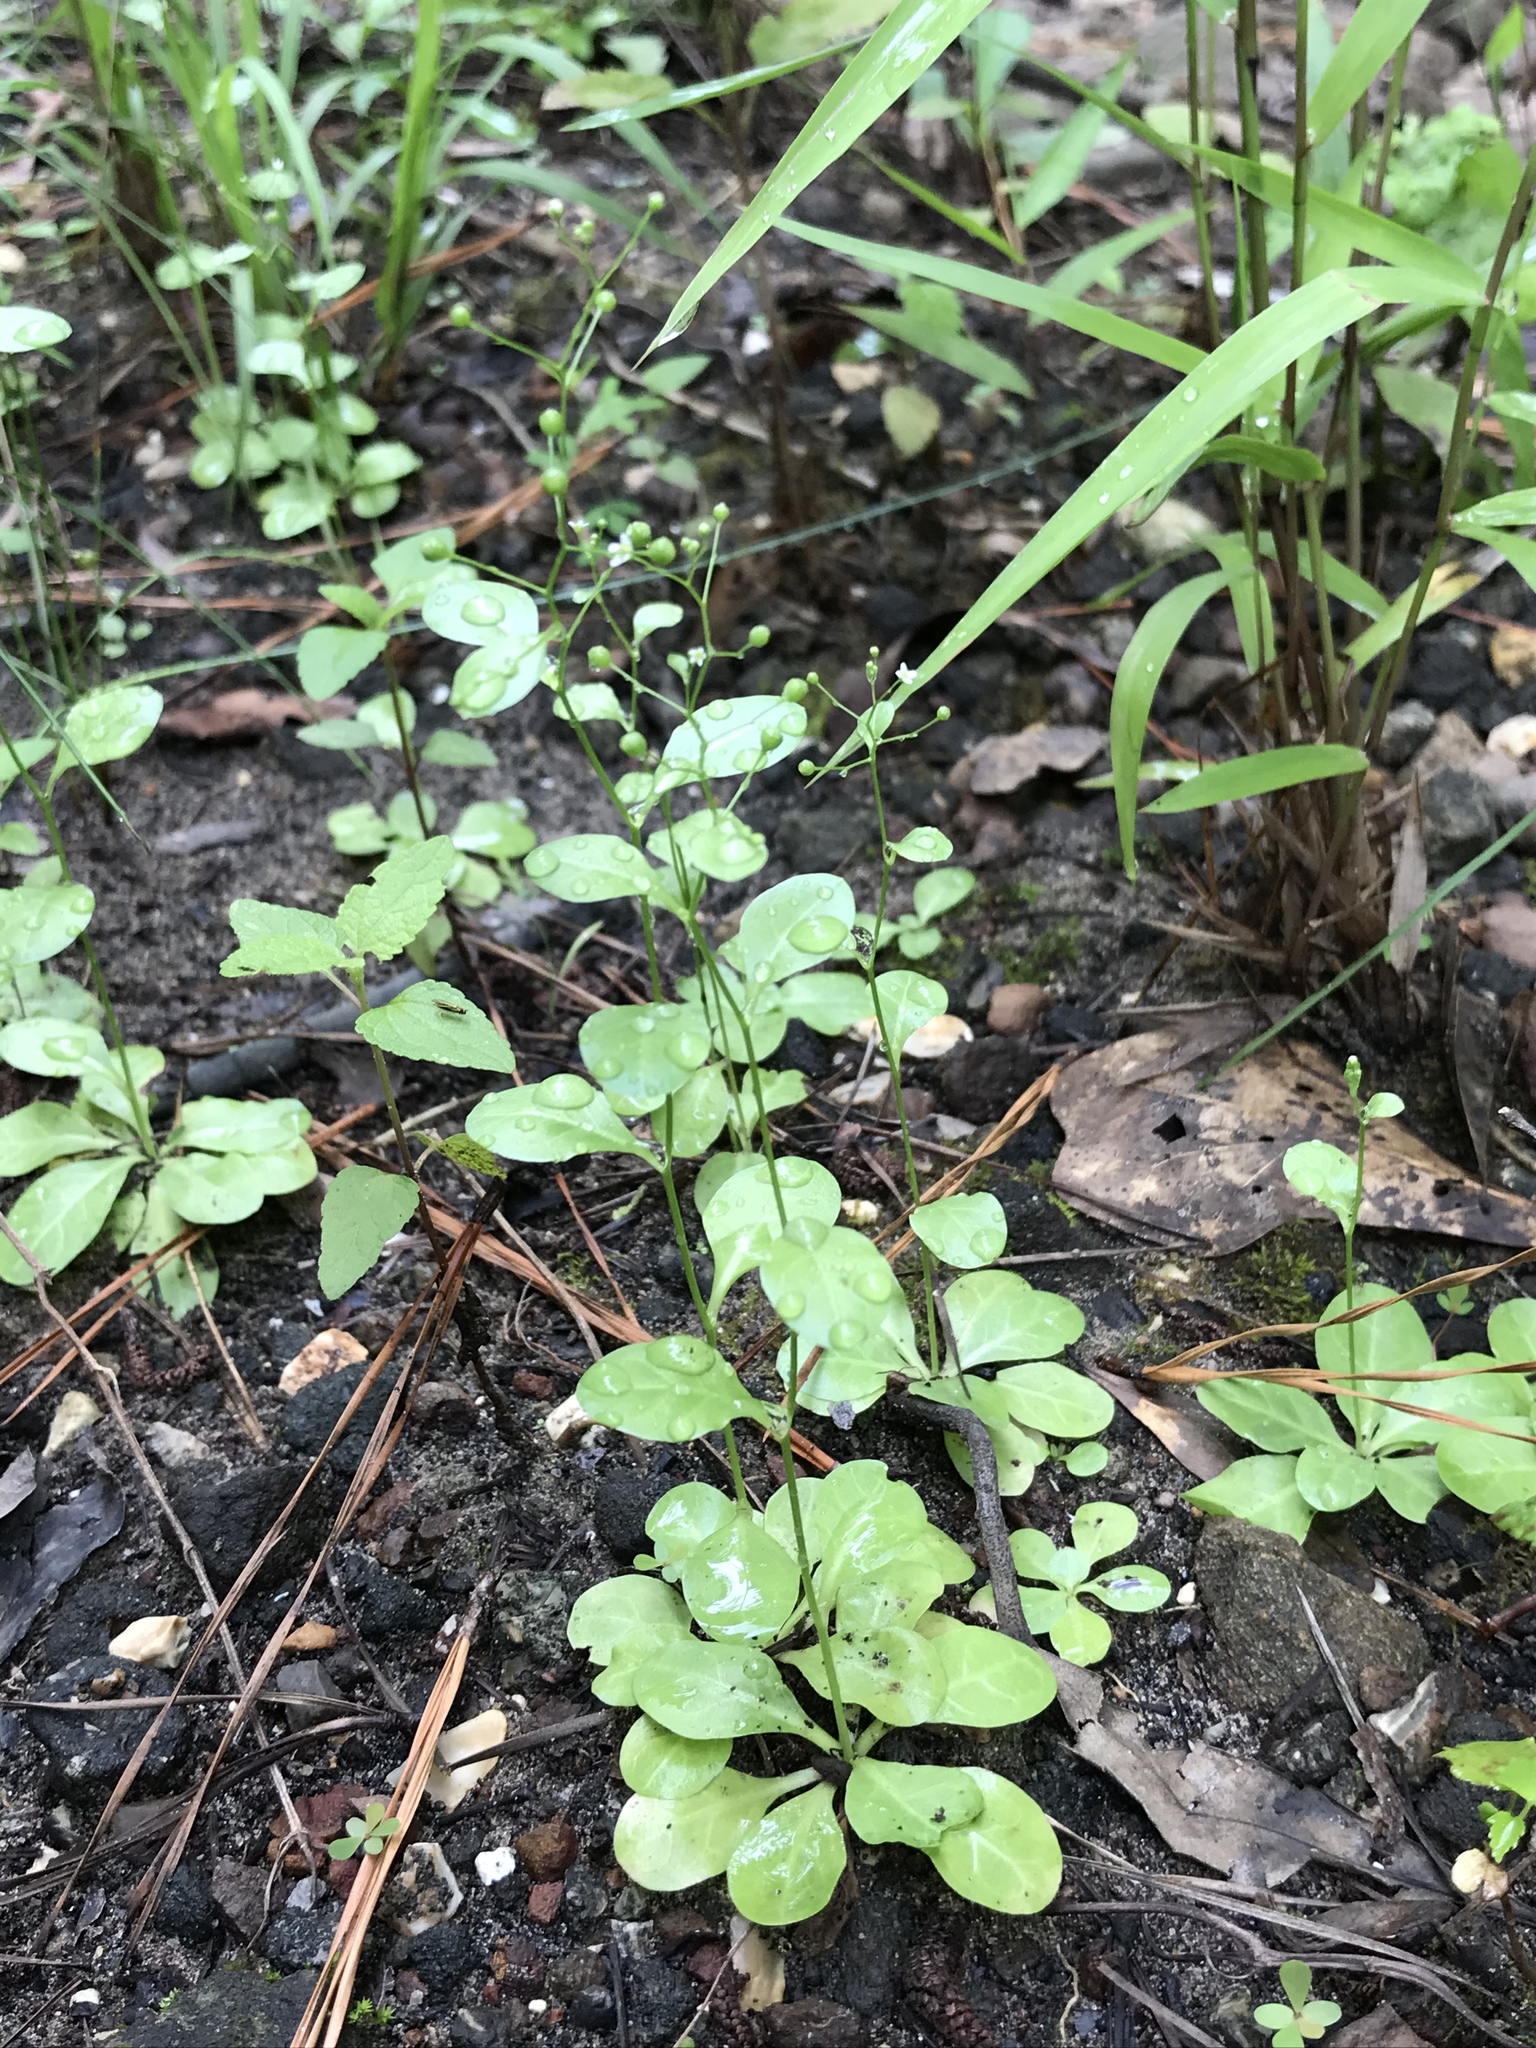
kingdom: Plantae
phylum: Tracheophyta
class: Magnoliopsida
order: Ericales
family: Primulaceae
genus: Samolus
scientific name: Samolus parviflorus
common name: False water pimpernel
